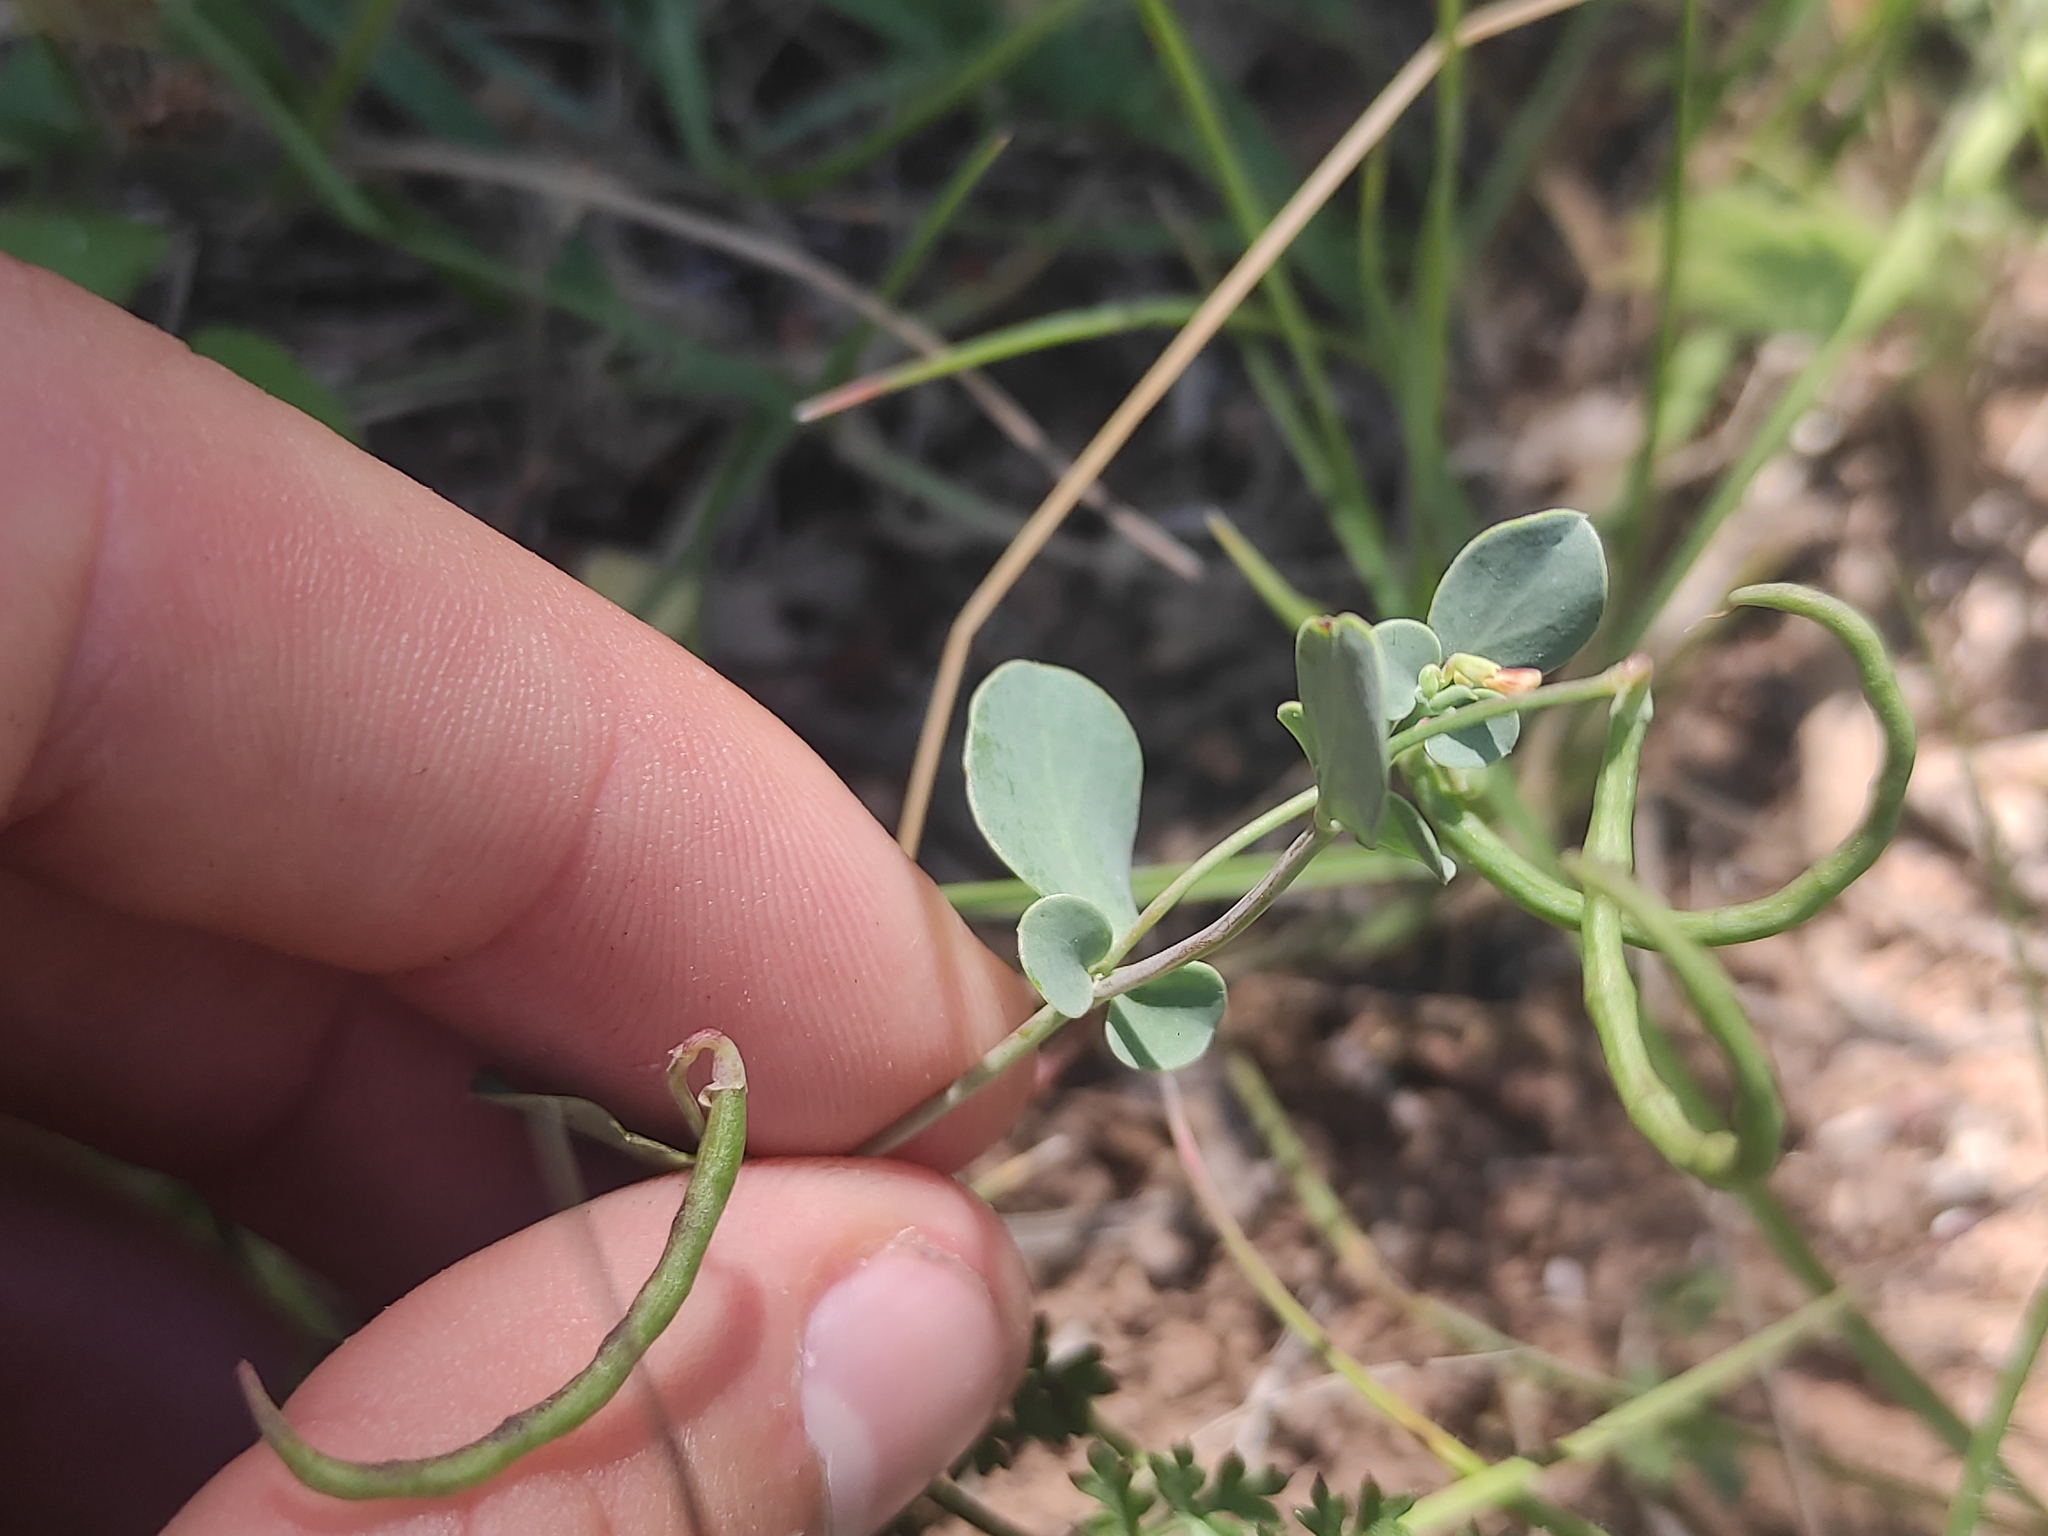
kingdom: Plantae
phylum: Tracheophyta
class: Magnoliopsida
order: Fabales
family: Fabaceae
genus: Coronilla
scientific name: Coronilla scorpioides
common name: Annual scorpion-vetch
